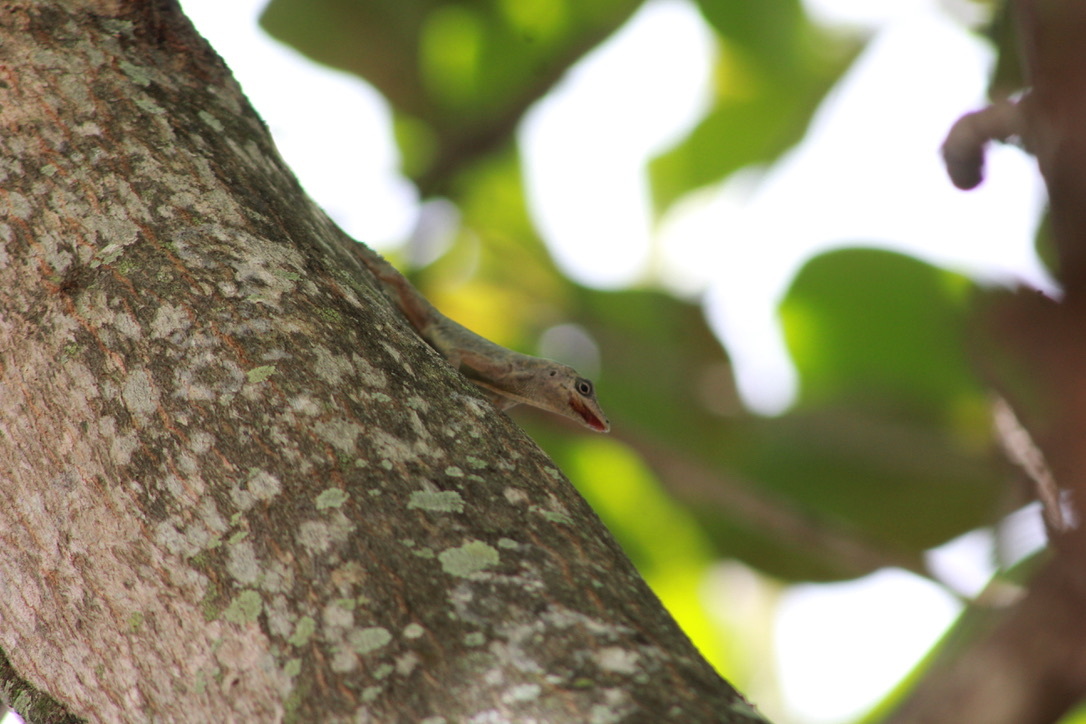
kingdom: Animalia
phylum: Chordata
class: Squamata
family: Dactyloidae
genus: Anolis
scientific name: Anolis aeneus
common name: Bronze anole
